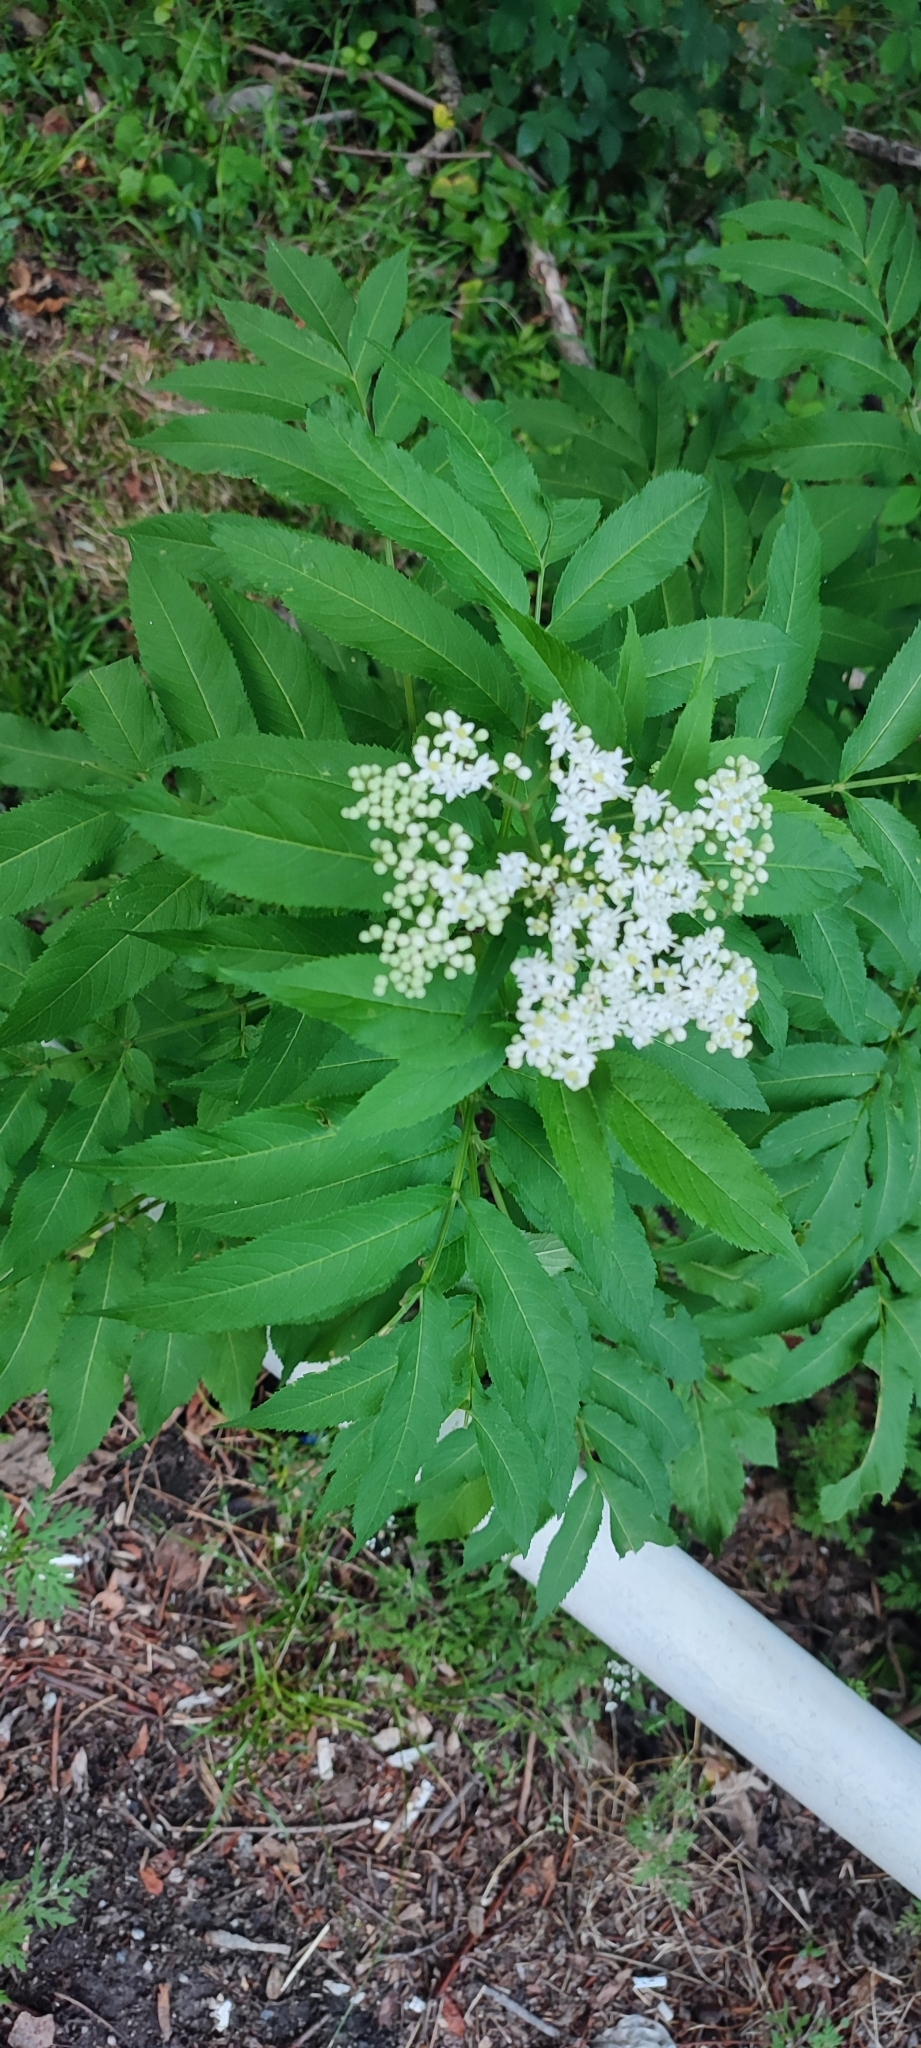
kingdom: Plantae
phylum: Tracheophyta
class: Magnoliopsida
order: Dipsacales
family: Viburnaceae
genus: Sambucus
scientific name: Sambucus ebulus
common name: Dwarf elder
